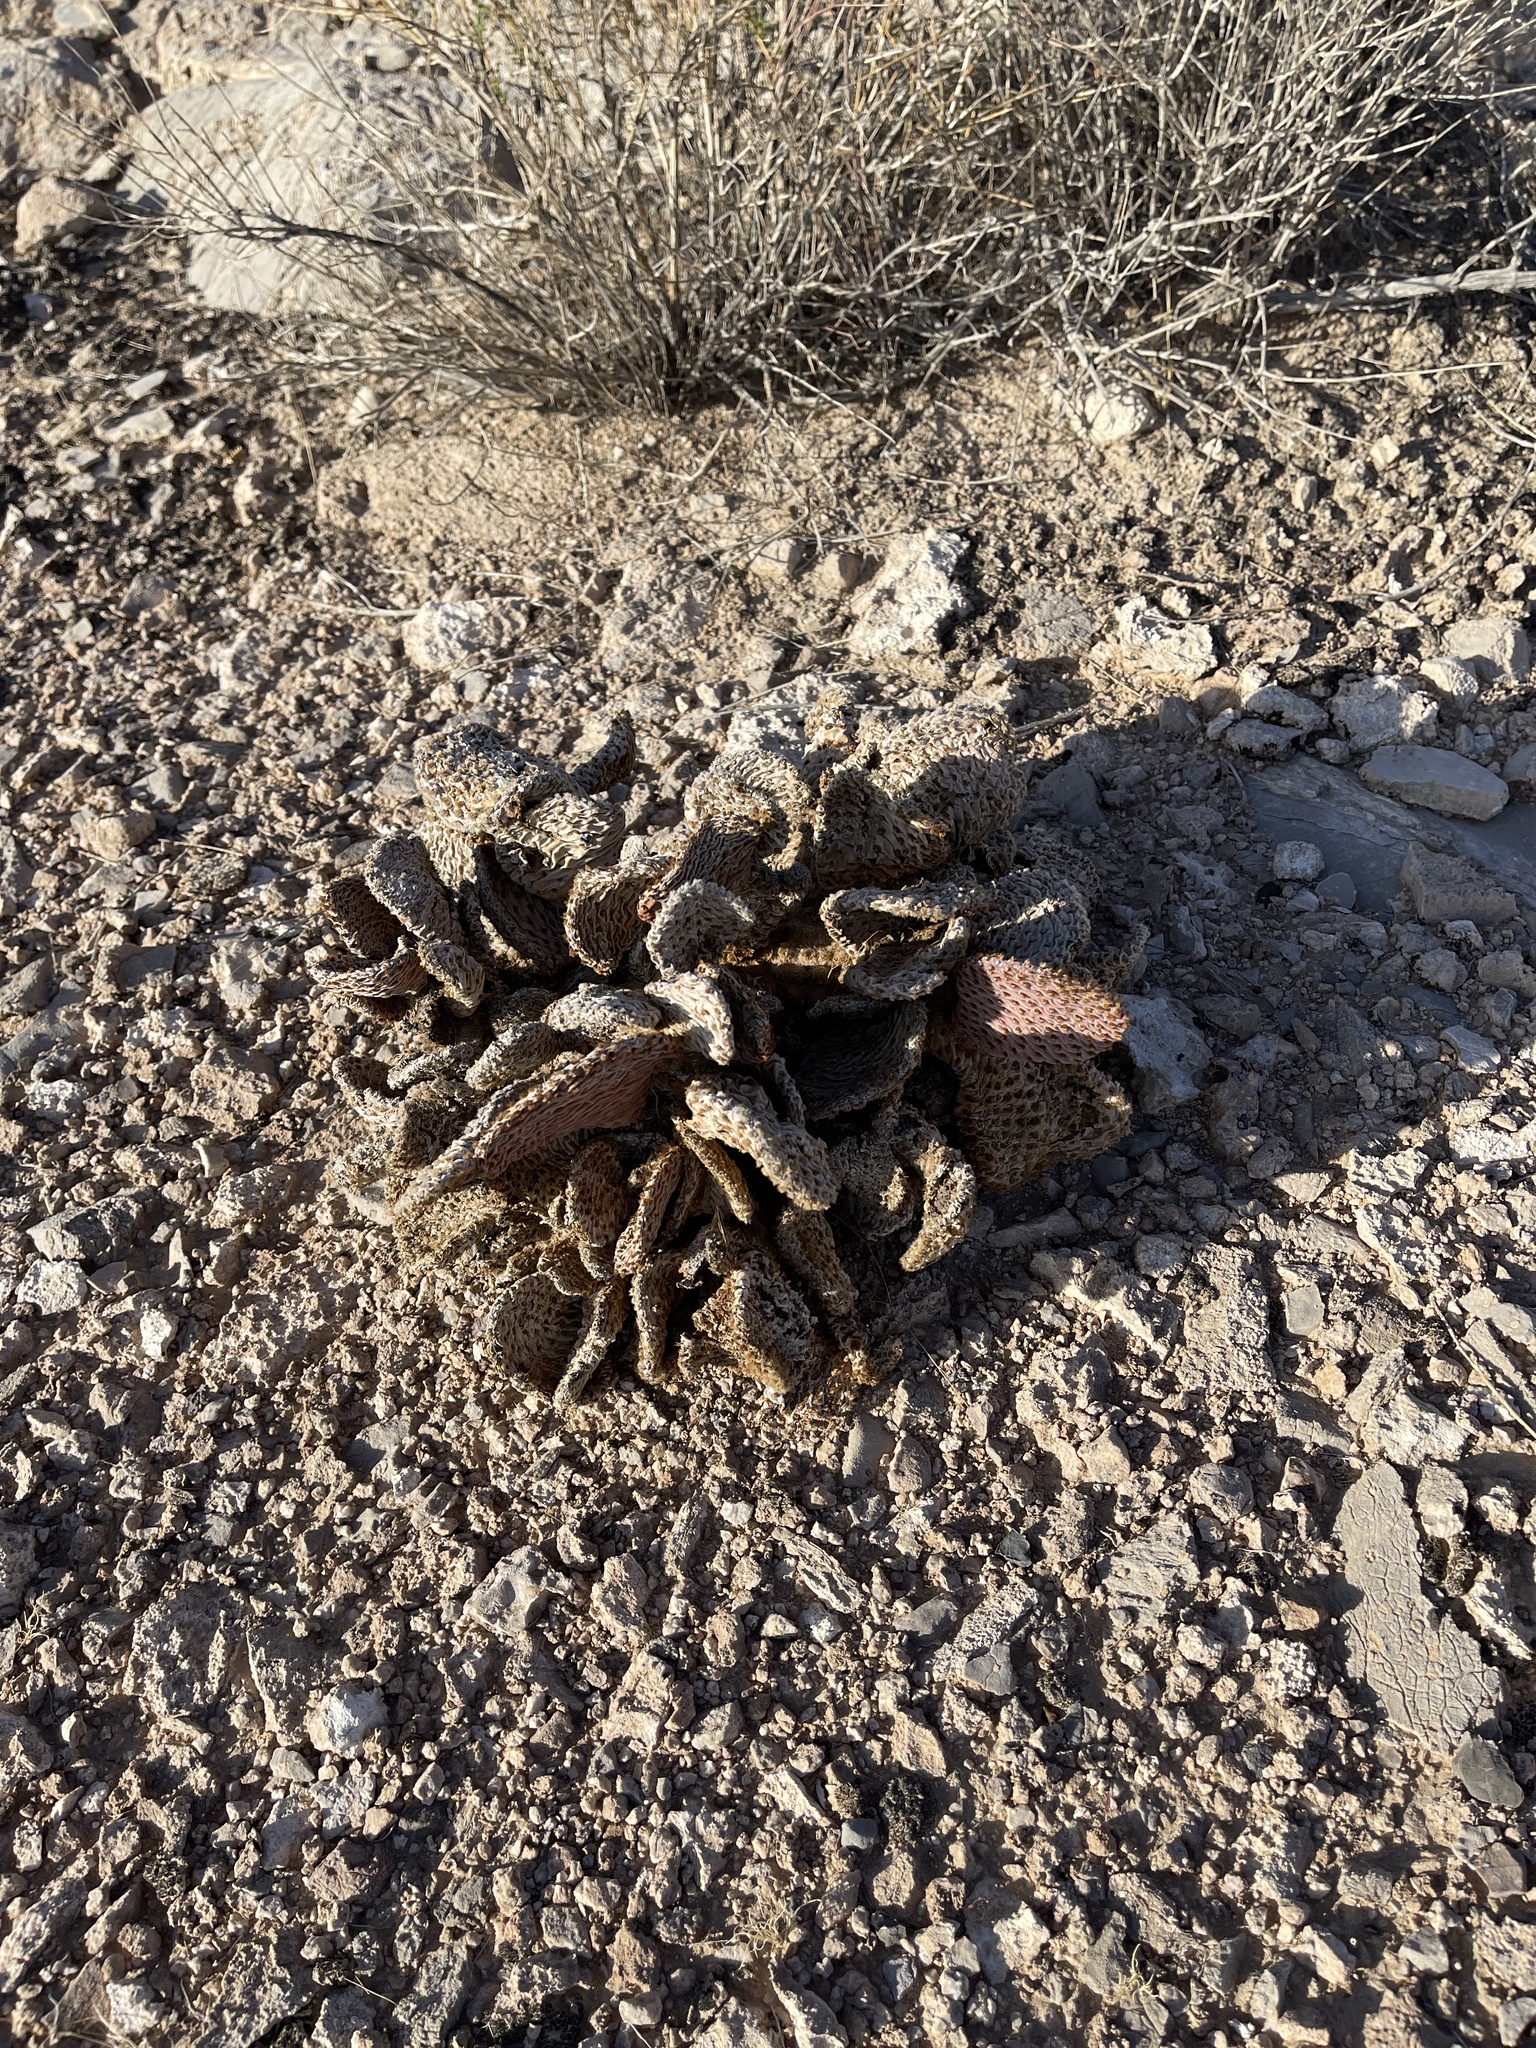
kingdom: Plantae
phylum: Tracheophyta
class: Magnoliopsida
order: Caryophyllales
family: Cactaceae
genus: Opuntia
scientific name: Opuntia basilaris
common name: Beavertail prickly-pear
